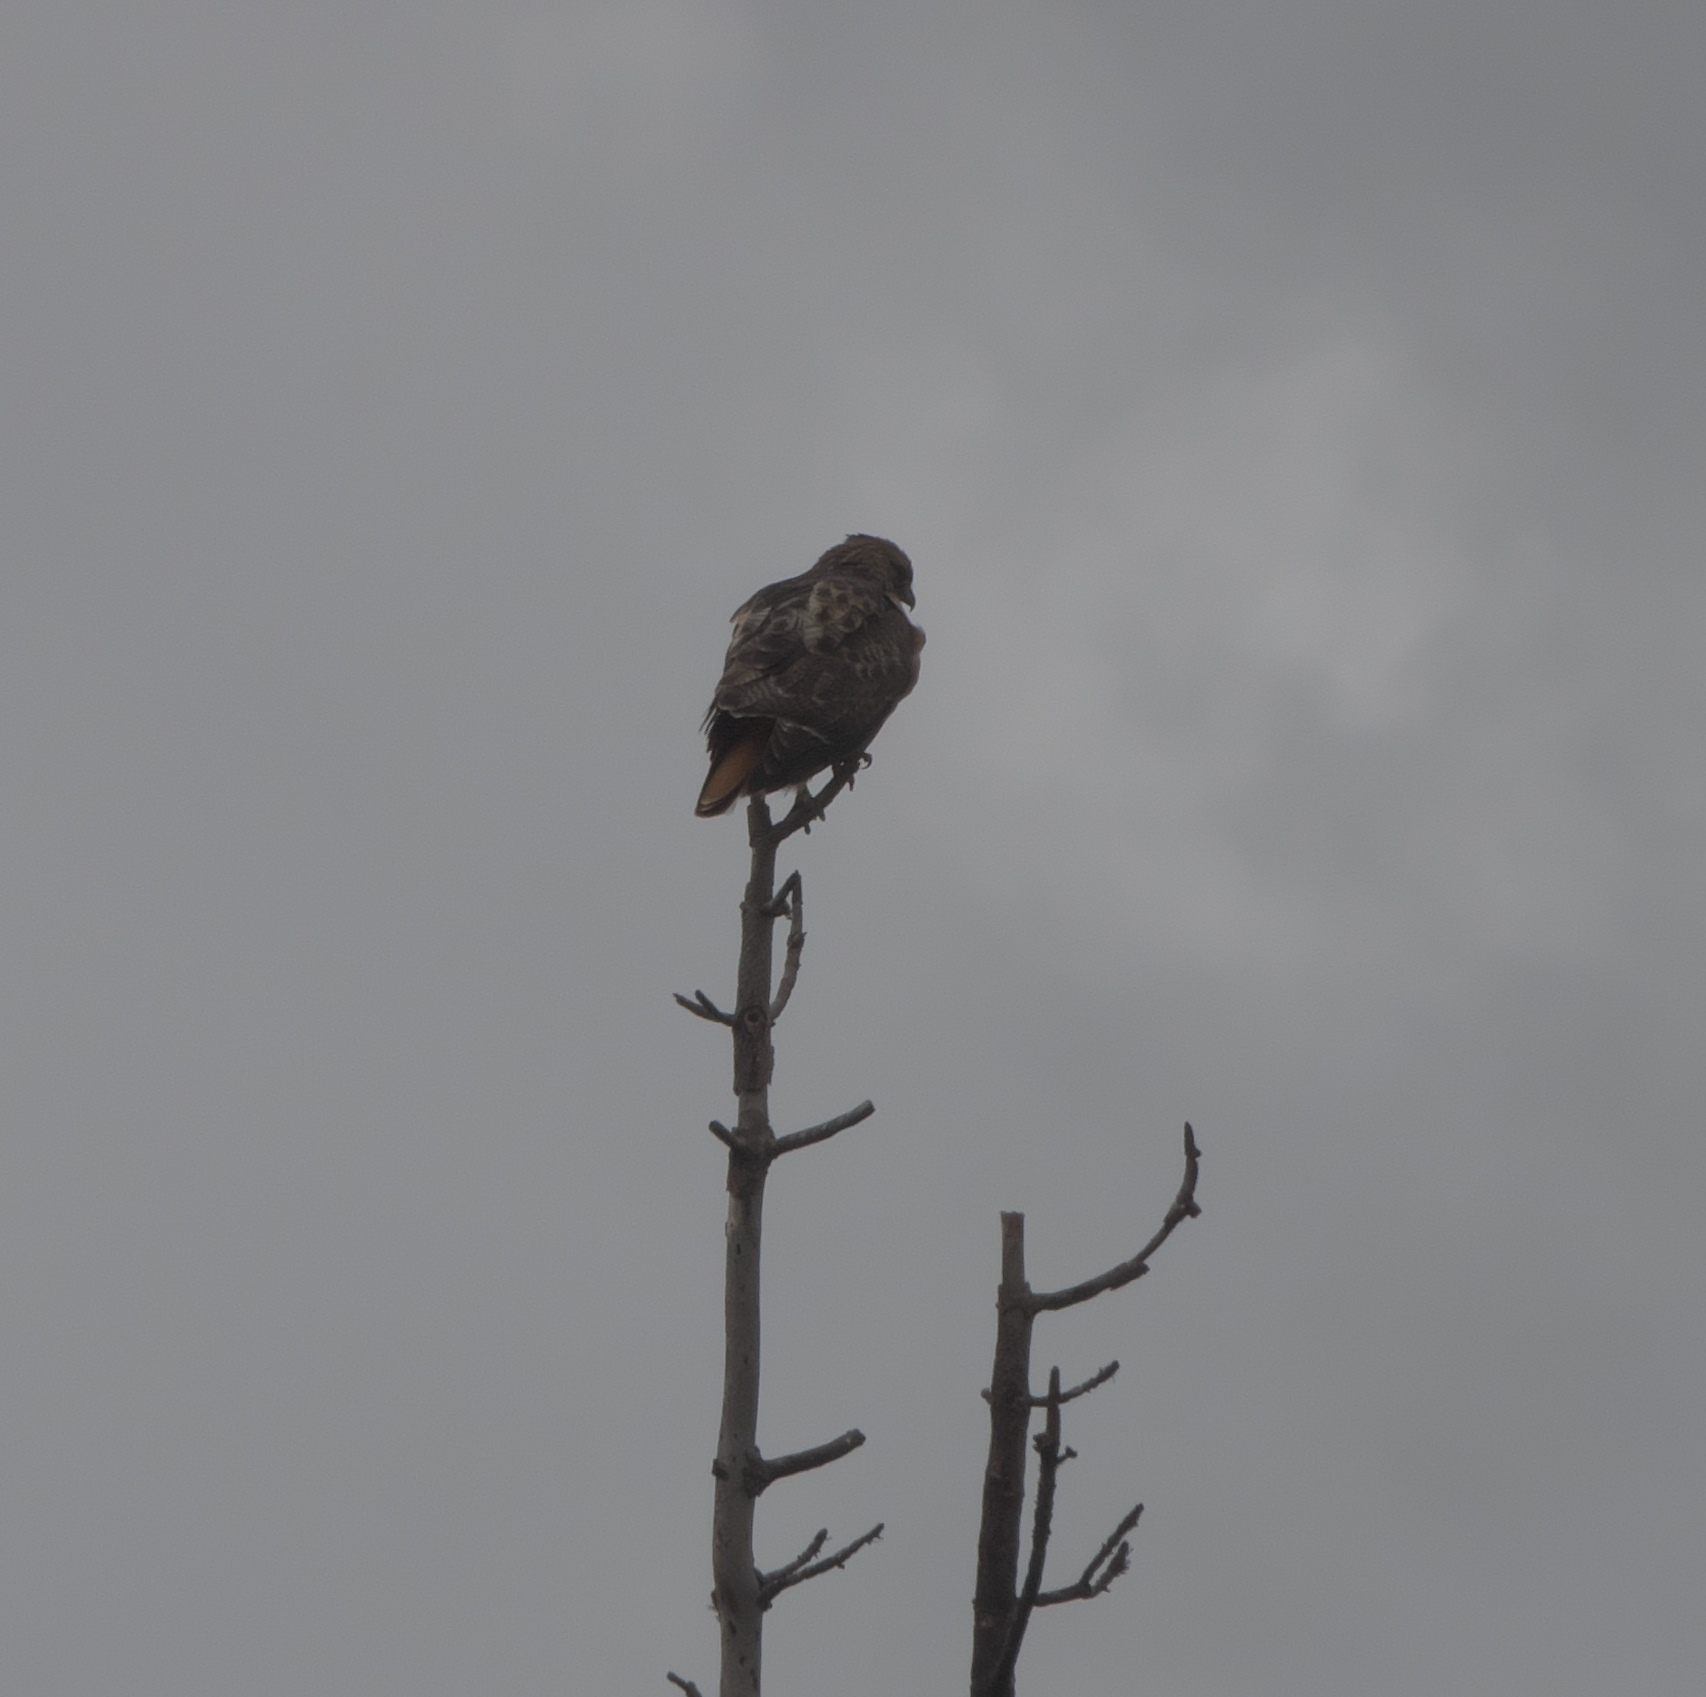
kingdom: Animalia
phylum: Chordata
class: Aves
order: Accipitriformes
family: Accipitridae
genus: Buteo
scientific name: Buteo jamaicensis
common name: Red-tailed hawk
